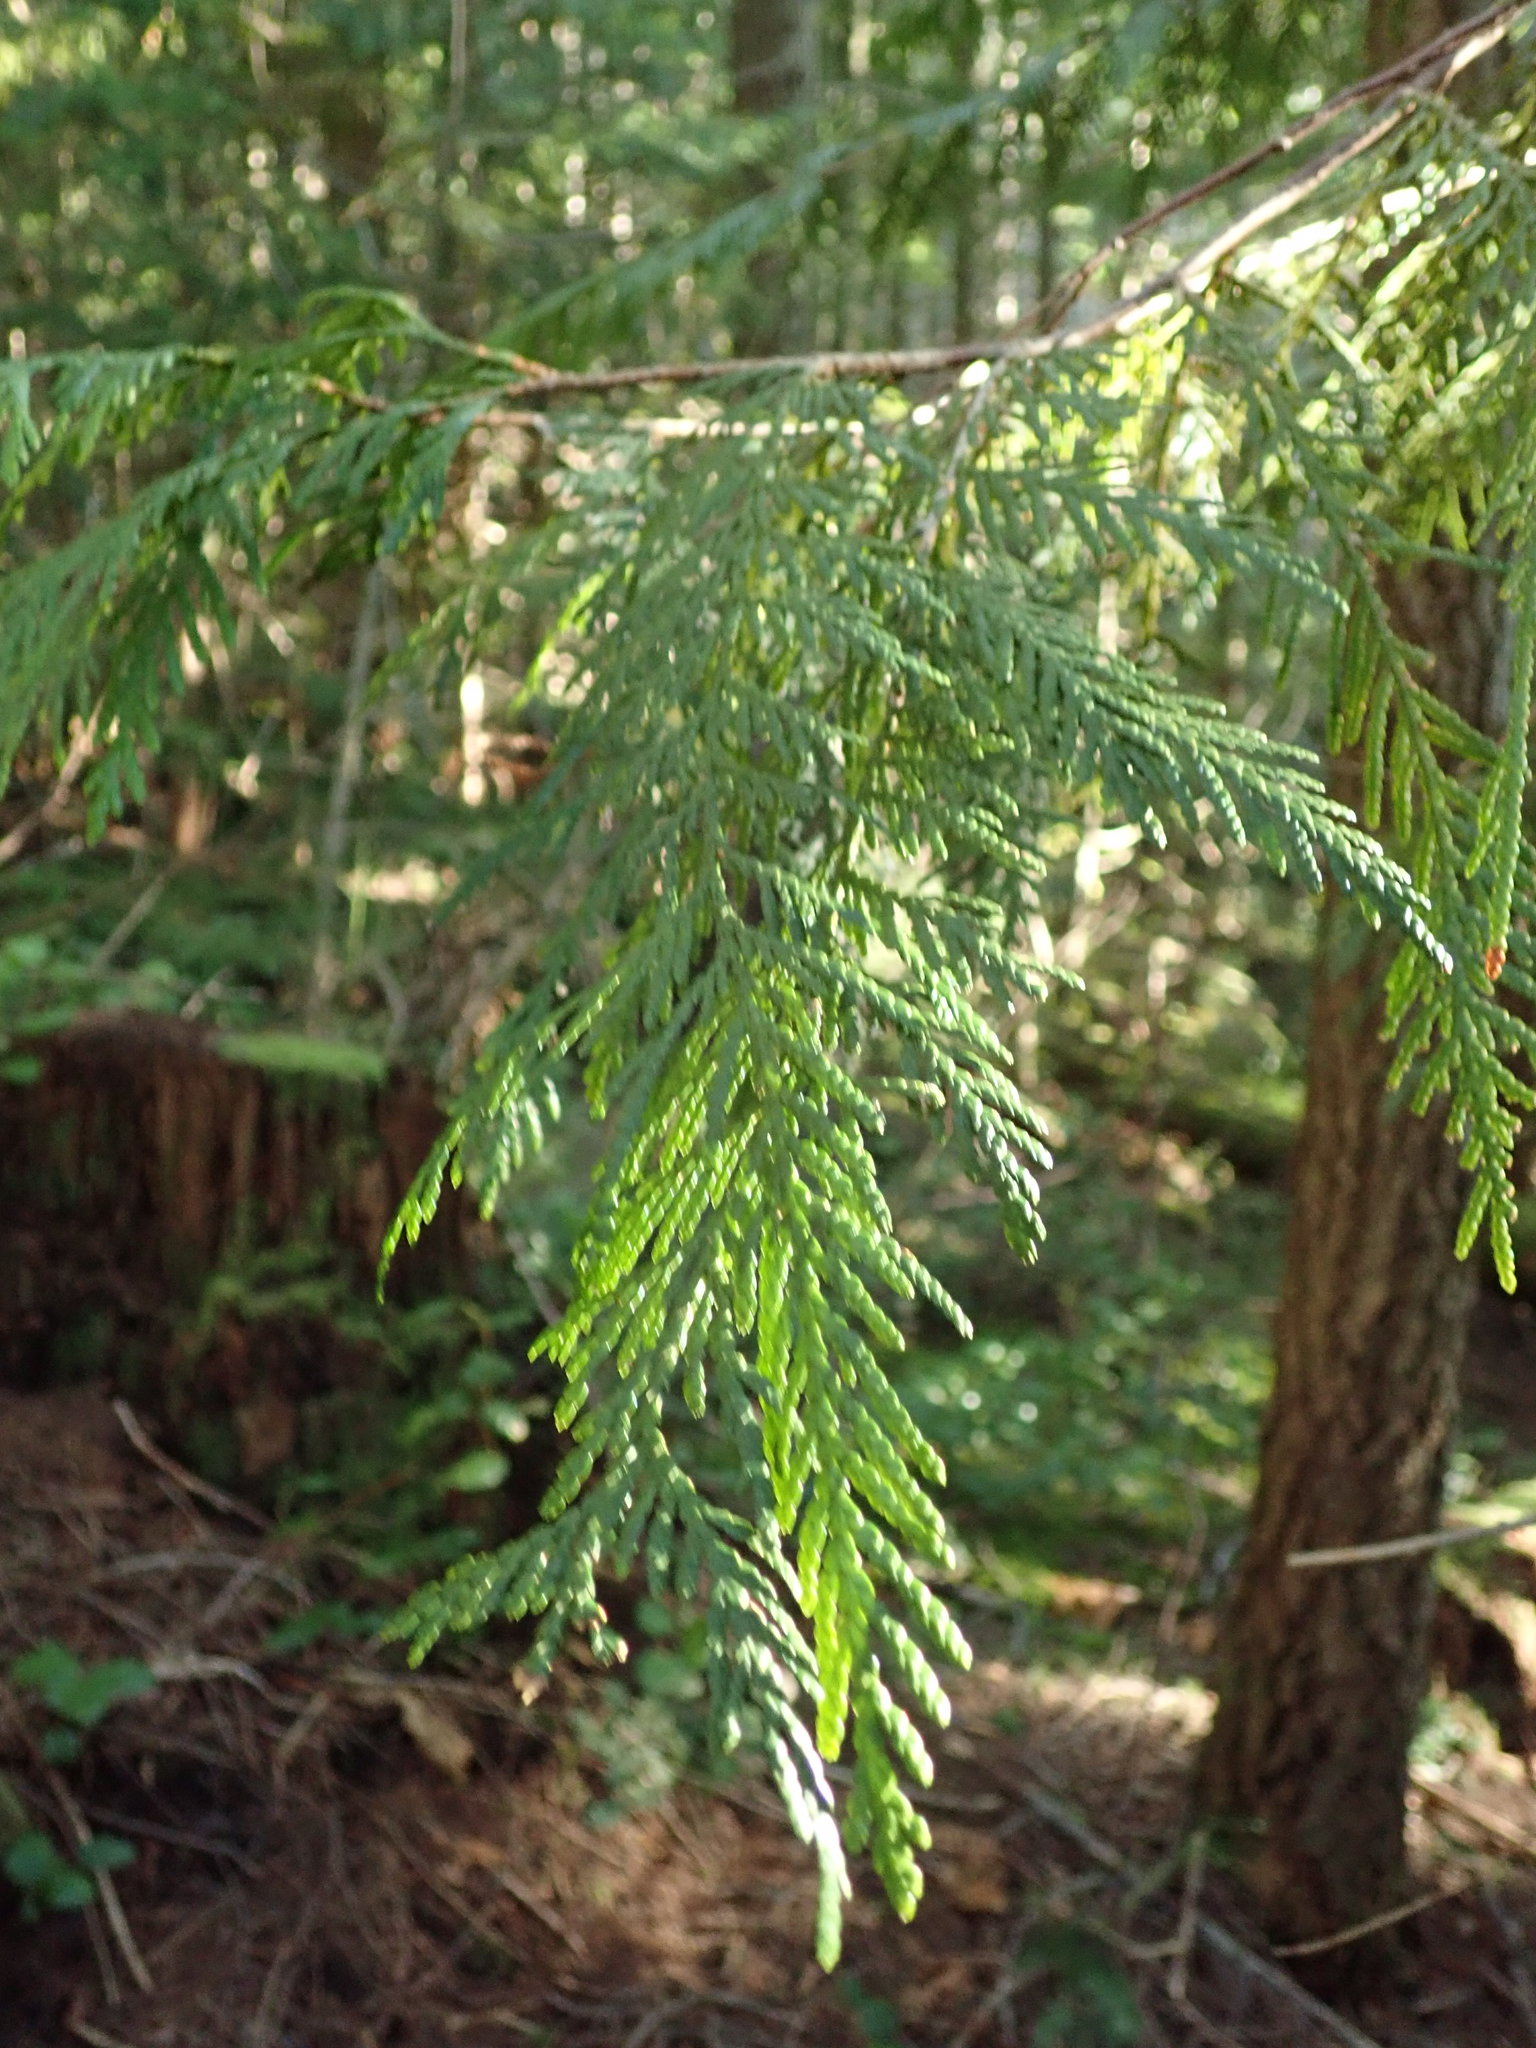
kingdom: Plantae
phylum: Tracheophyta
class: Pinopsida
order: Pinales
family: Cupressaceae
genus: Thuja
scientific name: Thuja plicata
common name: Western red-cedar
